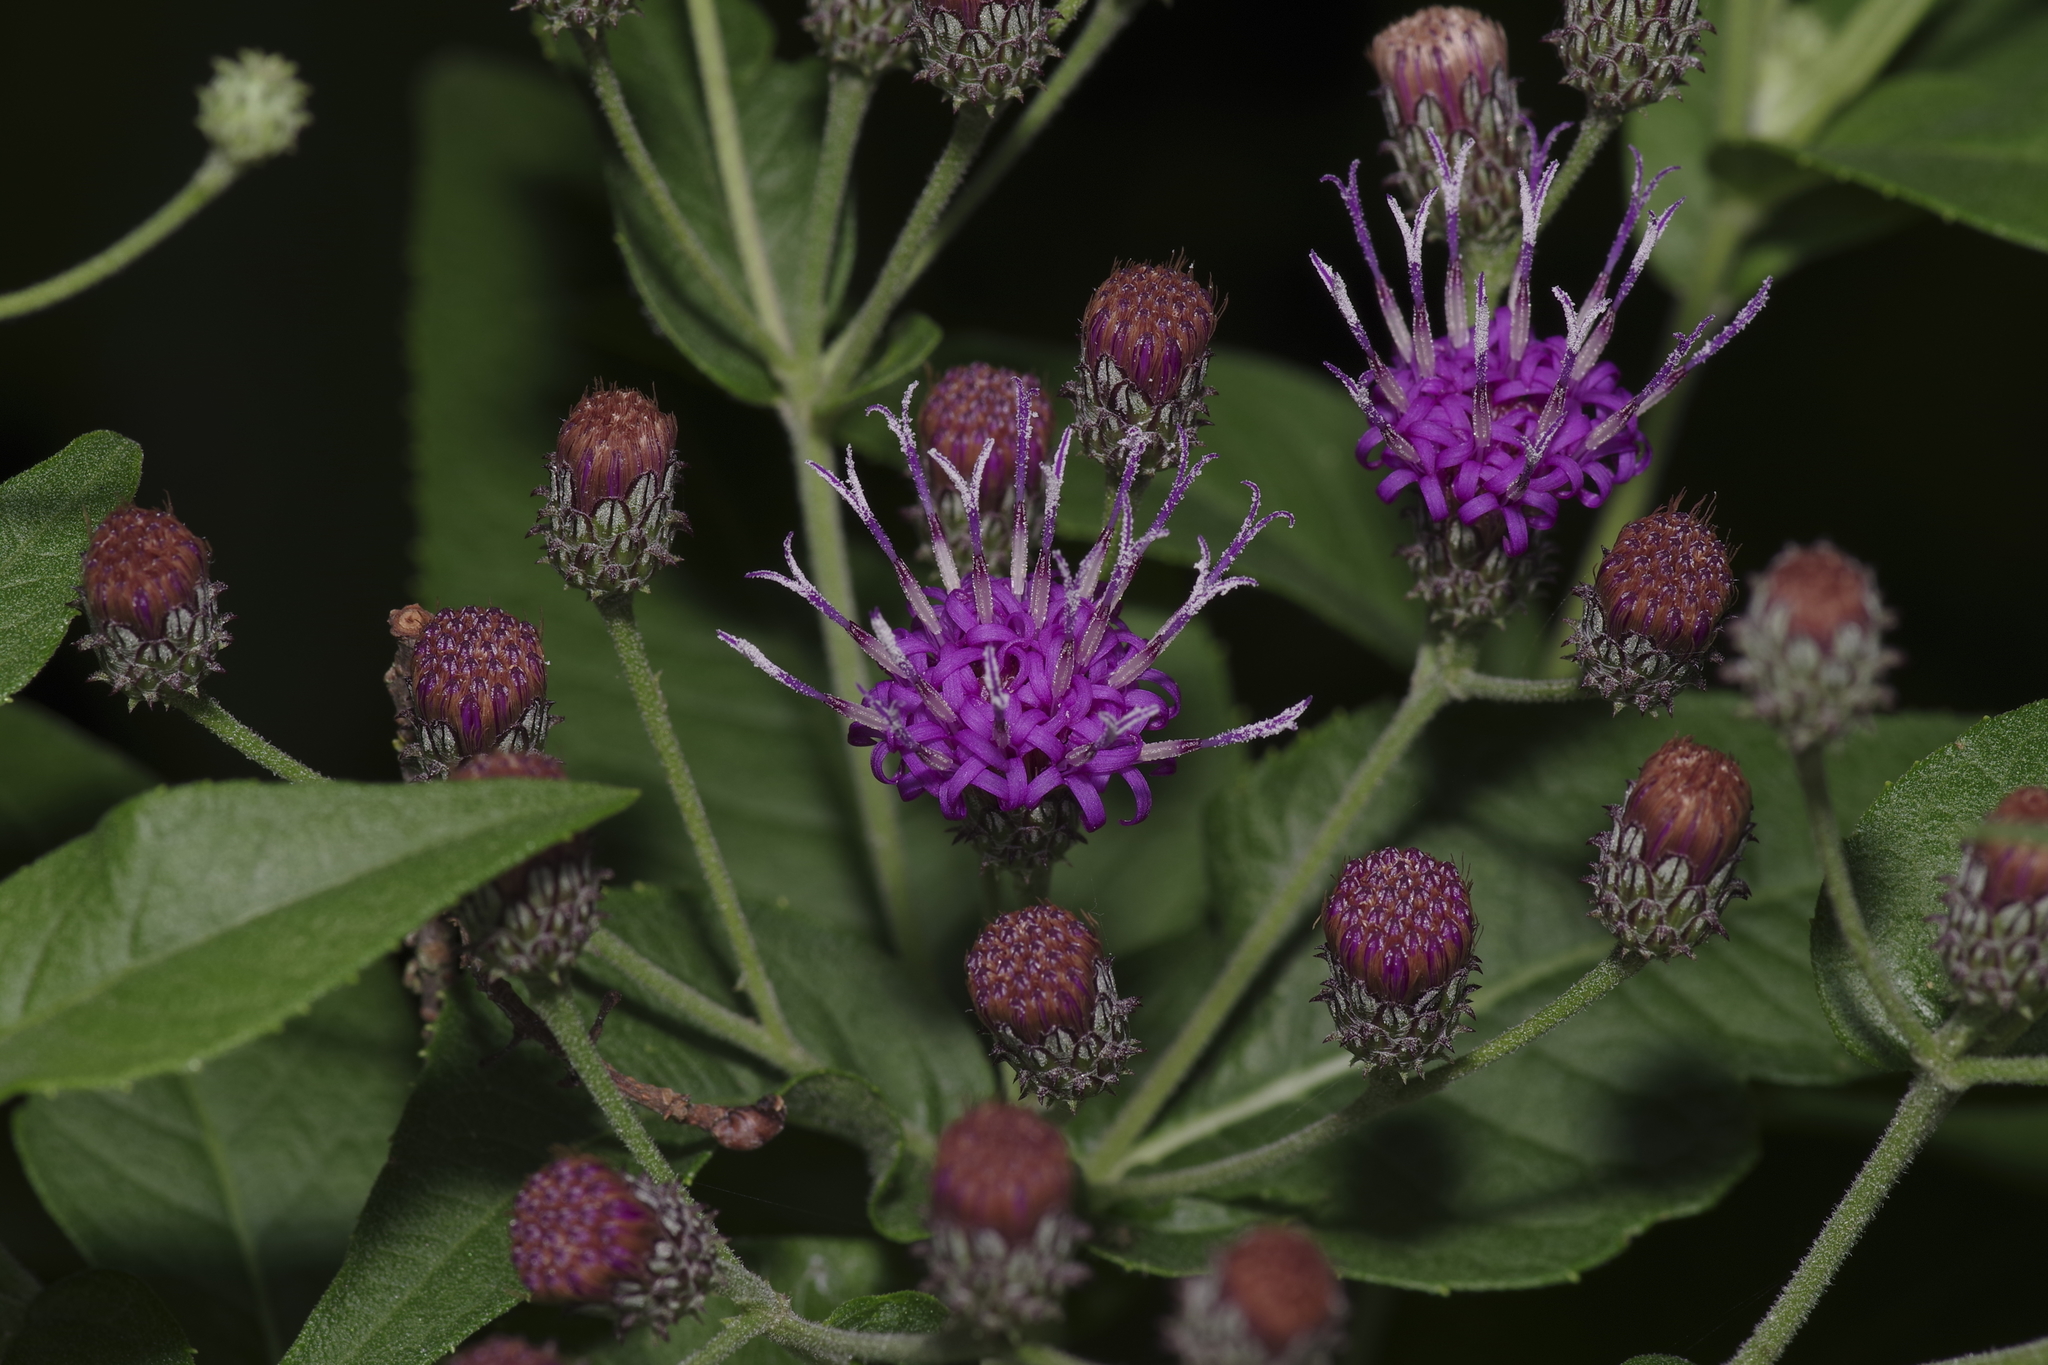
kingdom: Plantae
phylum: Tracheophyta
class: Magnoliopsida
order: Asterales
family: Asteraceae
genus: Vernonia
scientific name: Vernonia baldwinii
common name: Western ironweed
